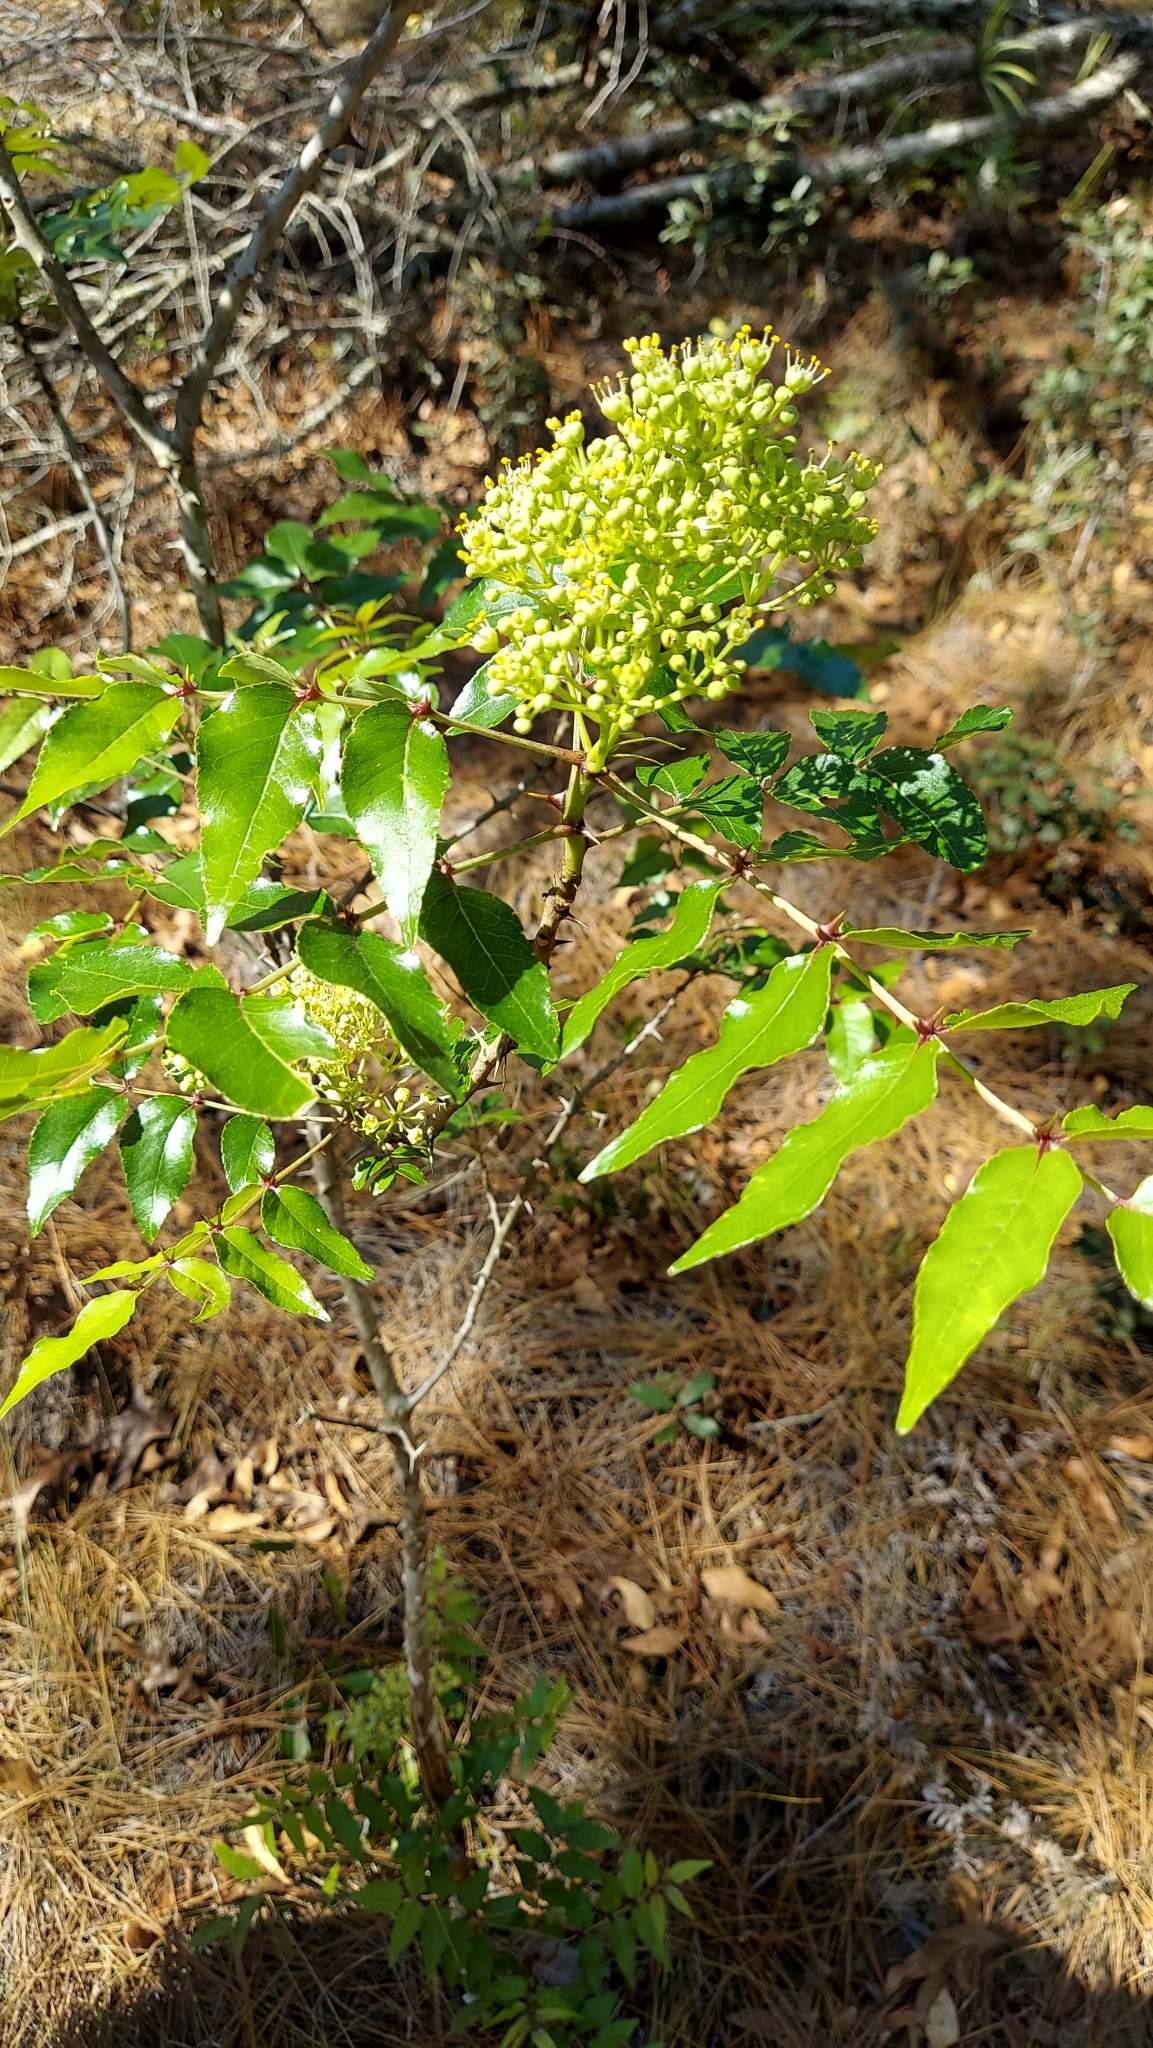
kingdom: Plantae
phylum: Tracheophyta
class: Magnoliopsida
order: Sapindales
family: Rutaceae
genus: Zanthoxylum
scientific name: Zanthoxylum clava-herculis
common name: Hercules'-club
